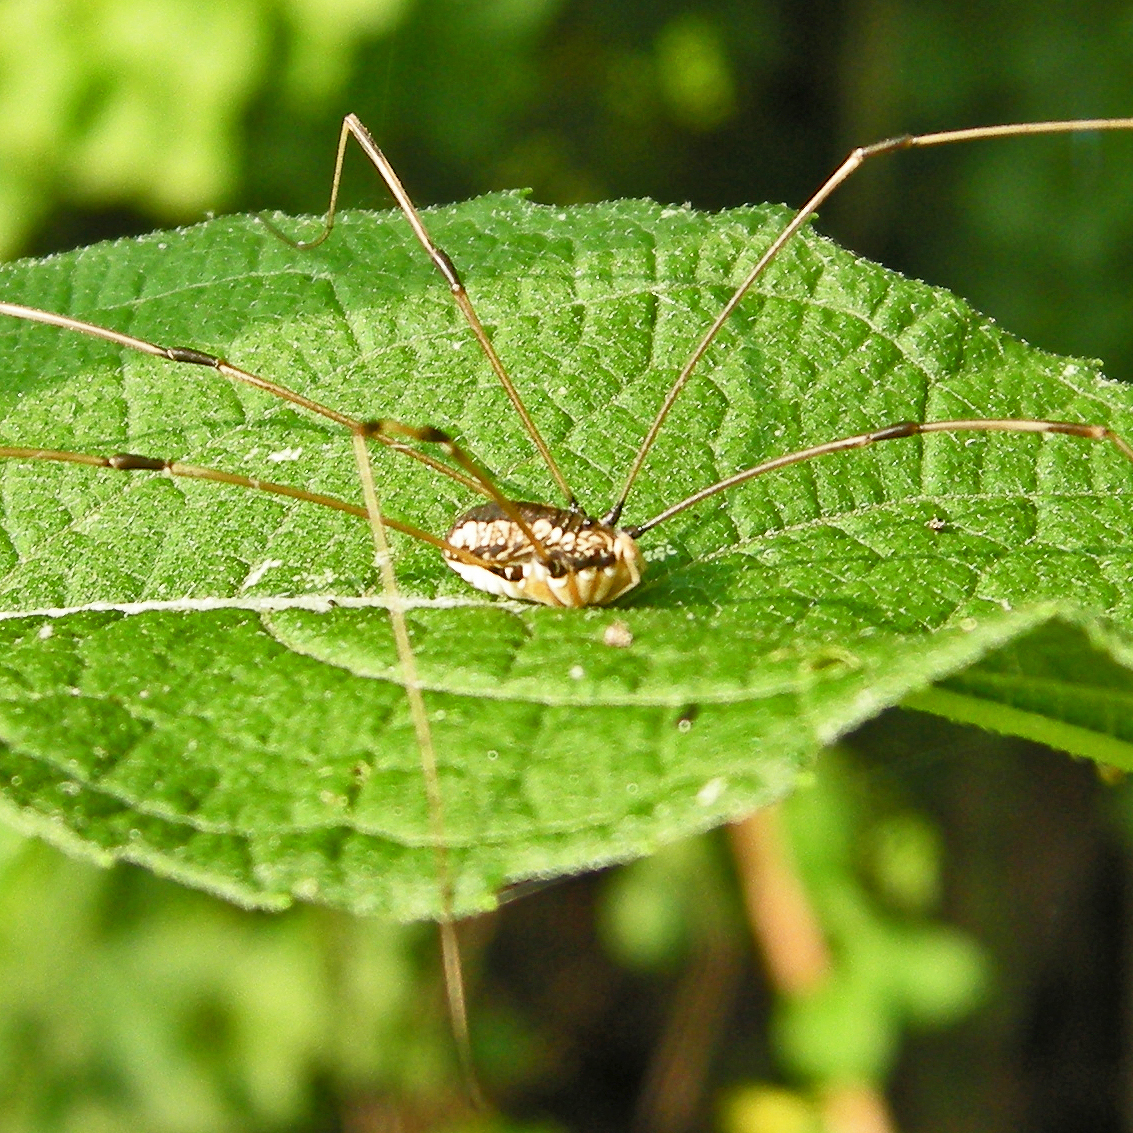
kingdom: Animalia
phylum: Arthropoda
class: Arachnida
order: Opiliones
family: Sclerosomatidae
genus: Leiobunum
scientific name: Leiobunum vittatum
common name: Eastern harvestman
